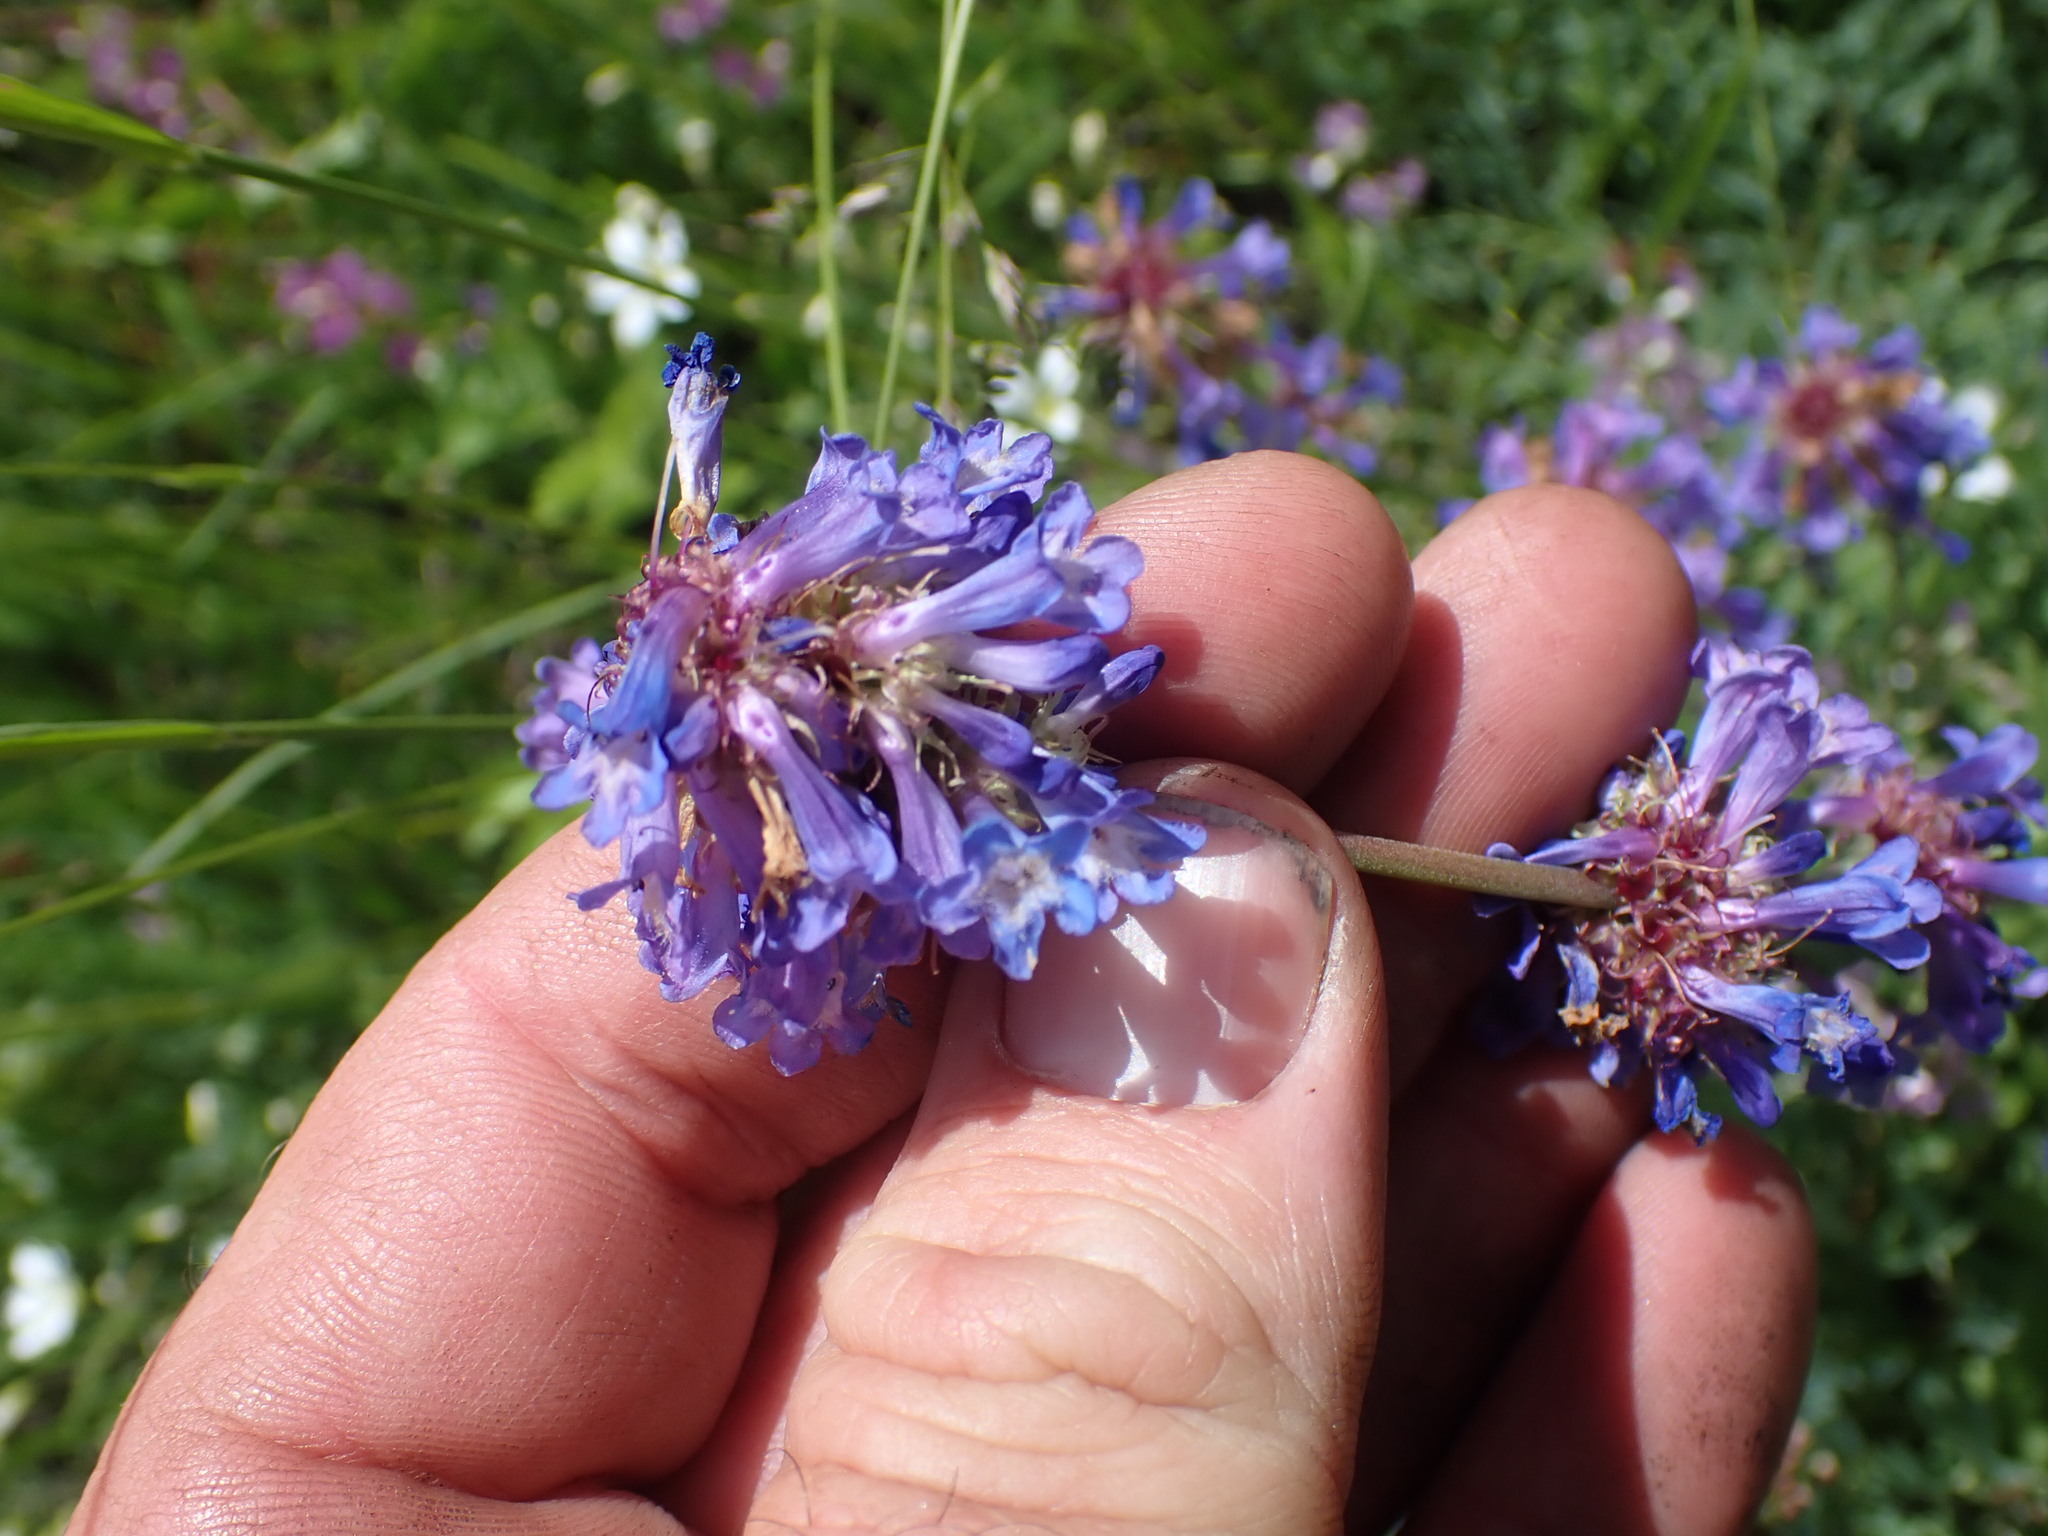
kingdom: Plantae
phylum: Tracheophyta
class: Magnoliopsida
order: Lamiales
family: Plantaginaceae
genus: Penstemon
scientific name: Penstemon procerus
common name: Small-flower penstemon
